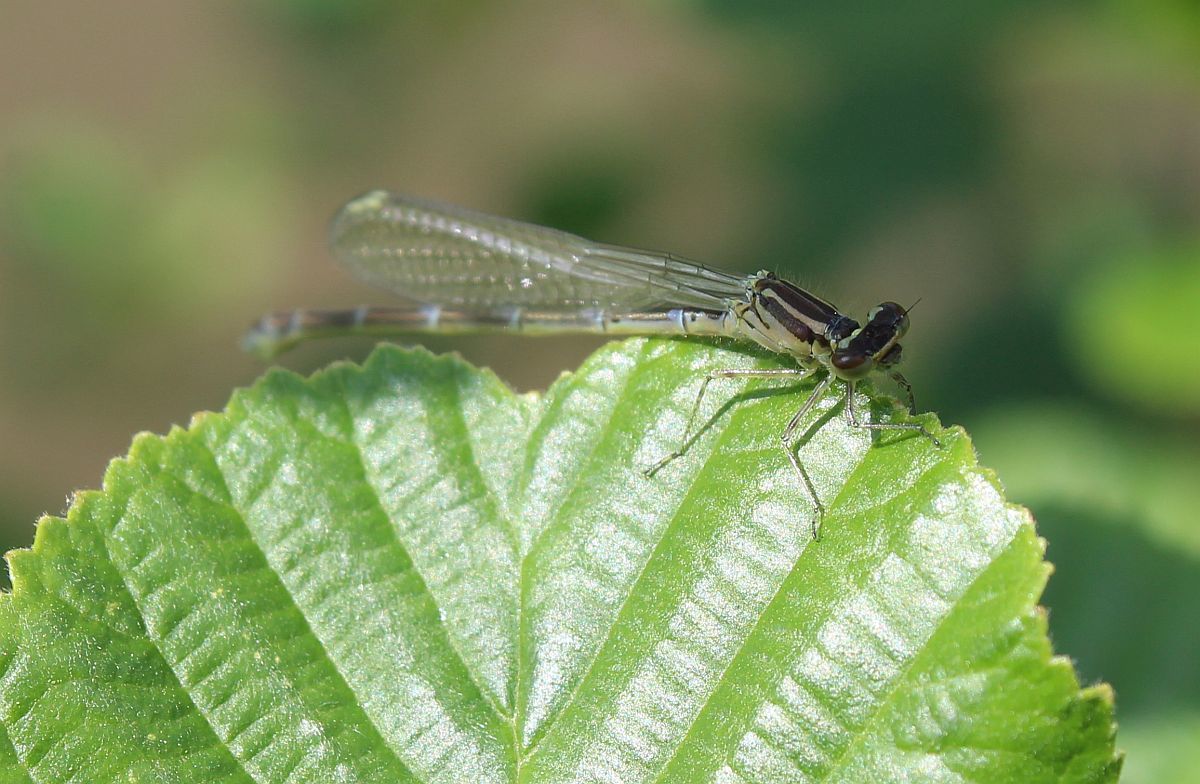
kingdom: Animalia
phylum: Arthropoda
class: Insecta
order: Odonata
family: Coenagrionidae
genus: Coenagrion
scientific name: Coenagrion puella
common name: Azure damselfly
